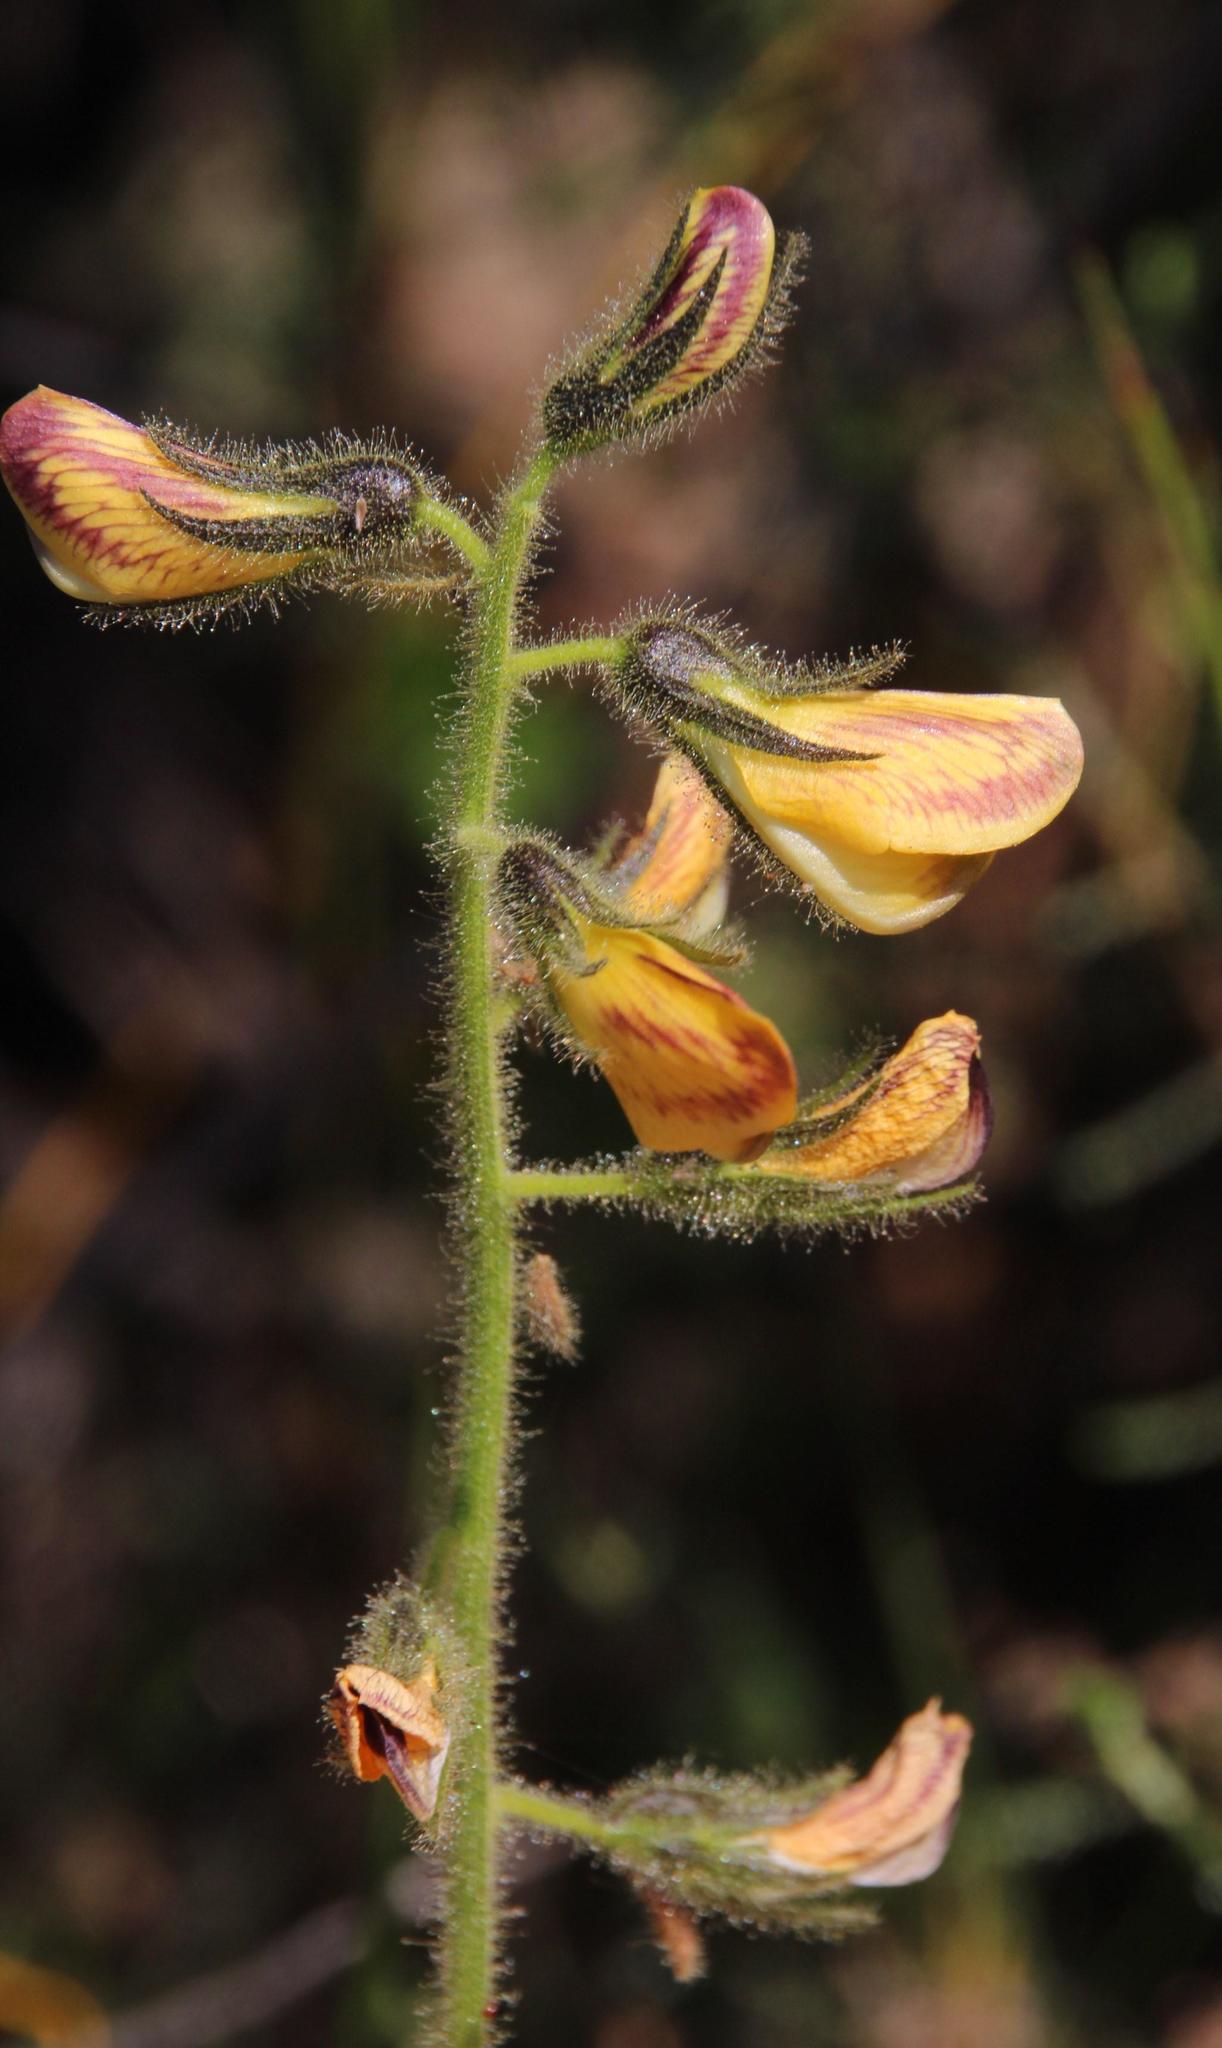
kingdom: Plantae
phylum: Tracheophyta
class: Magnoliopsida
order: Fabales
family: Fabaceae
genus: Bolusafra
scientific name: Bolusafra bituminosa
